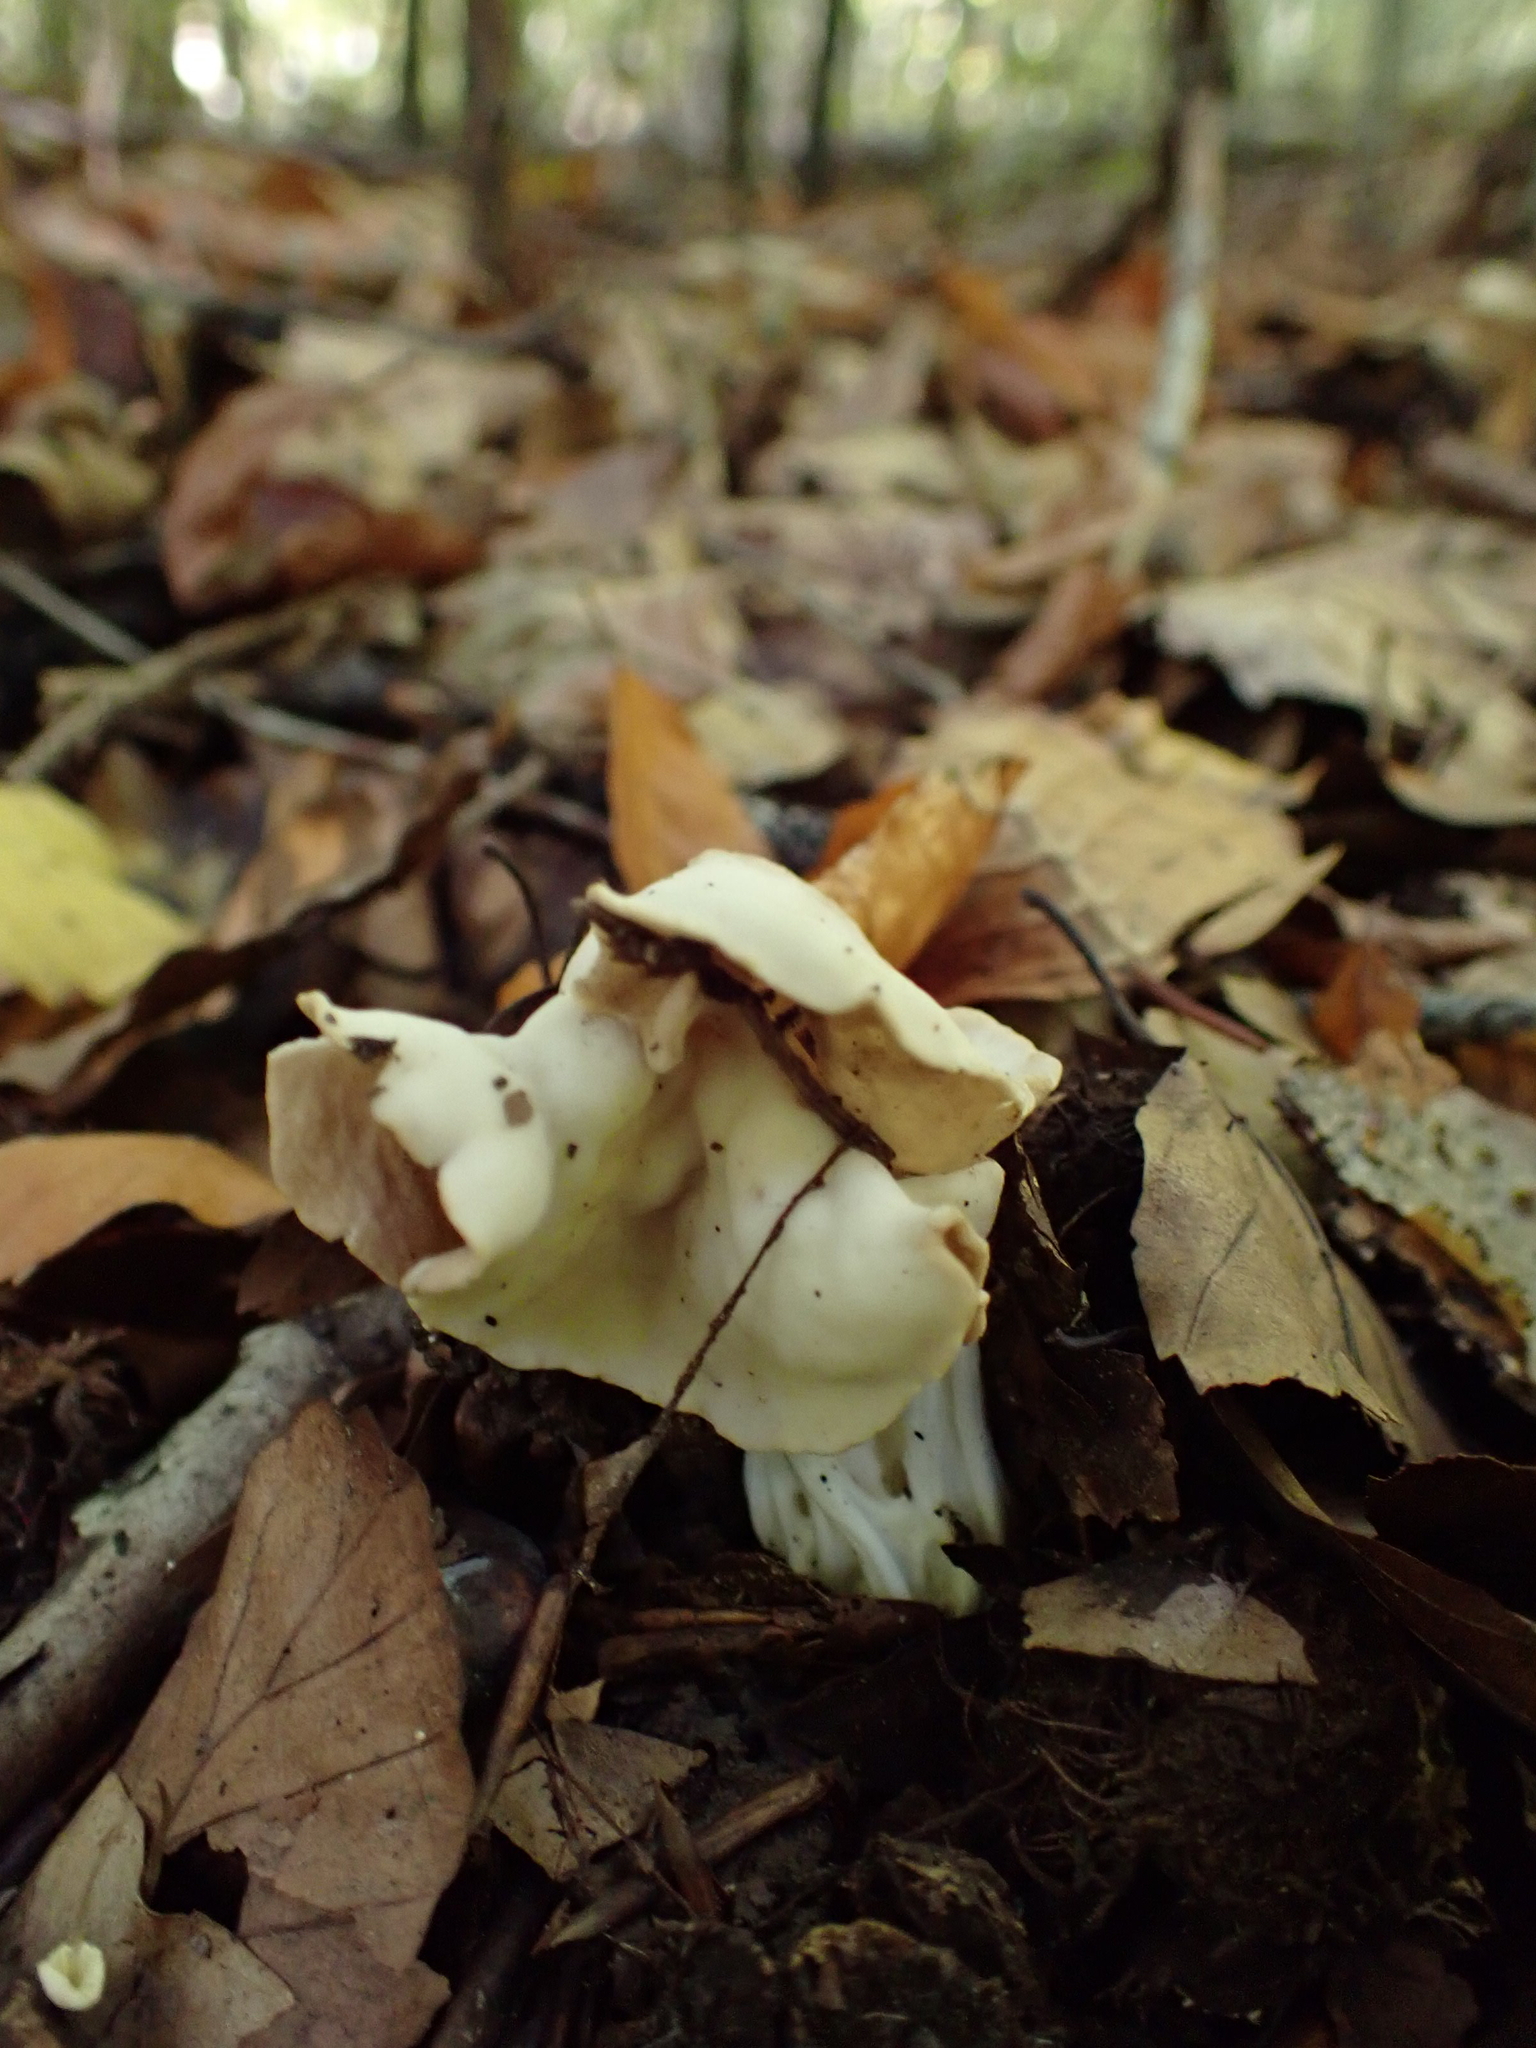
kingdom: Fungi
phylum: Ascomycota
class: Pezizomycetes
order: Pezizales
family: Helvellaceae
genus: Helvella
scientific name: Helvella crispa
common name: White saddle
